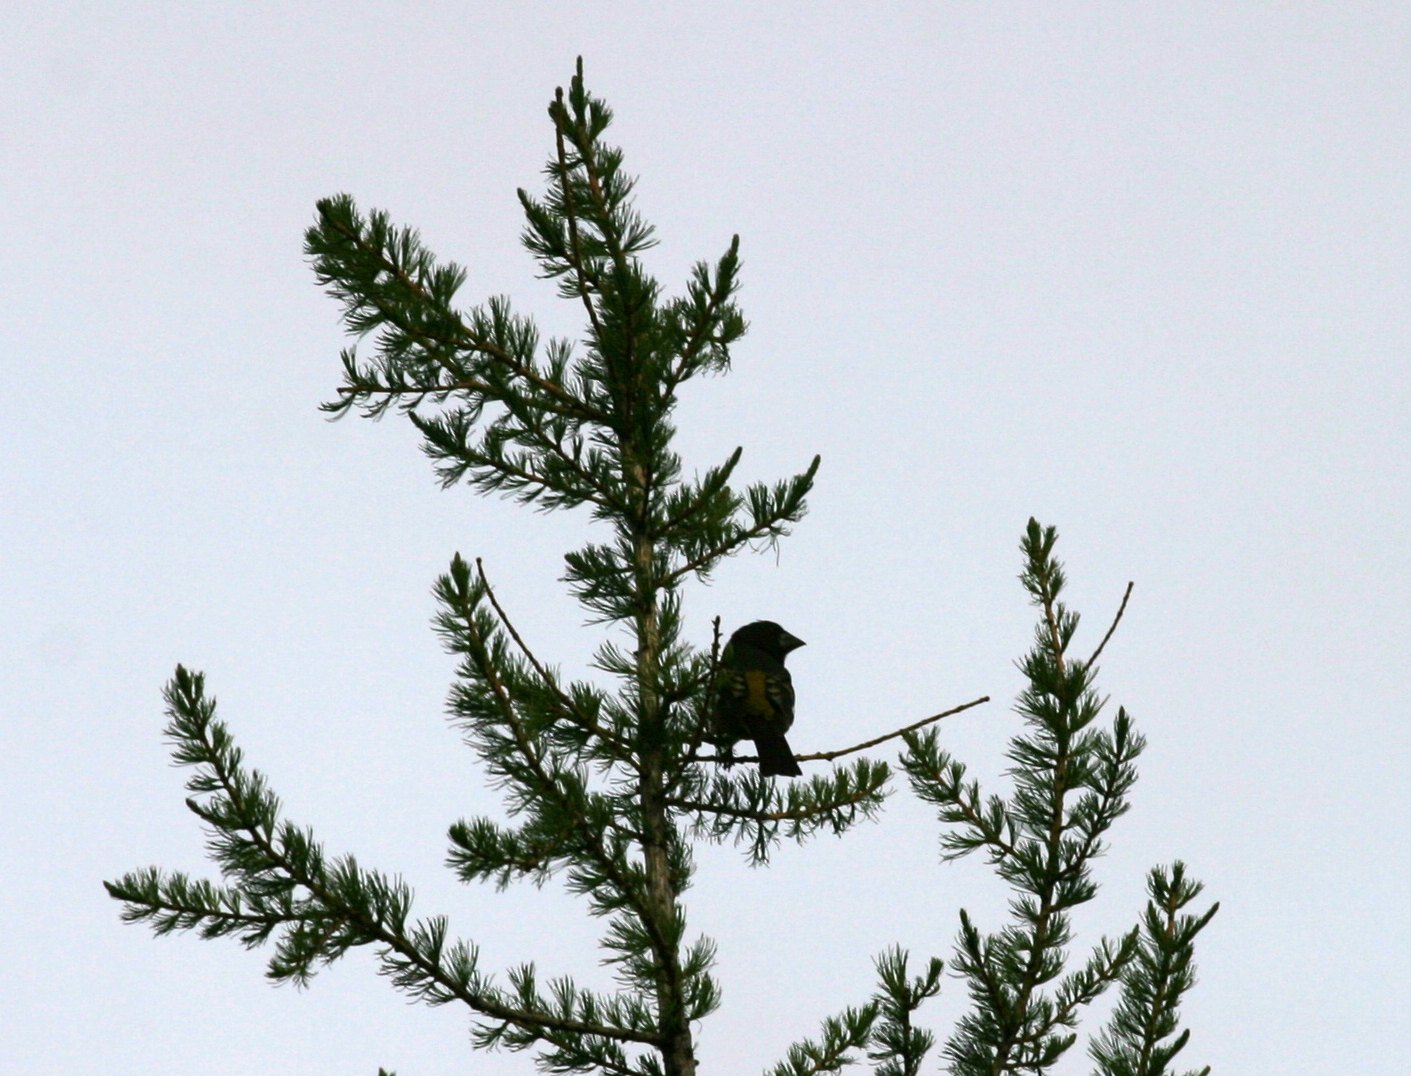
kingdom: Animalia
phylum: Chordata
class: Aves
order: Passeriformes
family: Fringillidae
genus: Mycerobas
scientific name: Mycerobas carnipes
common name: White-winged grosbeak
